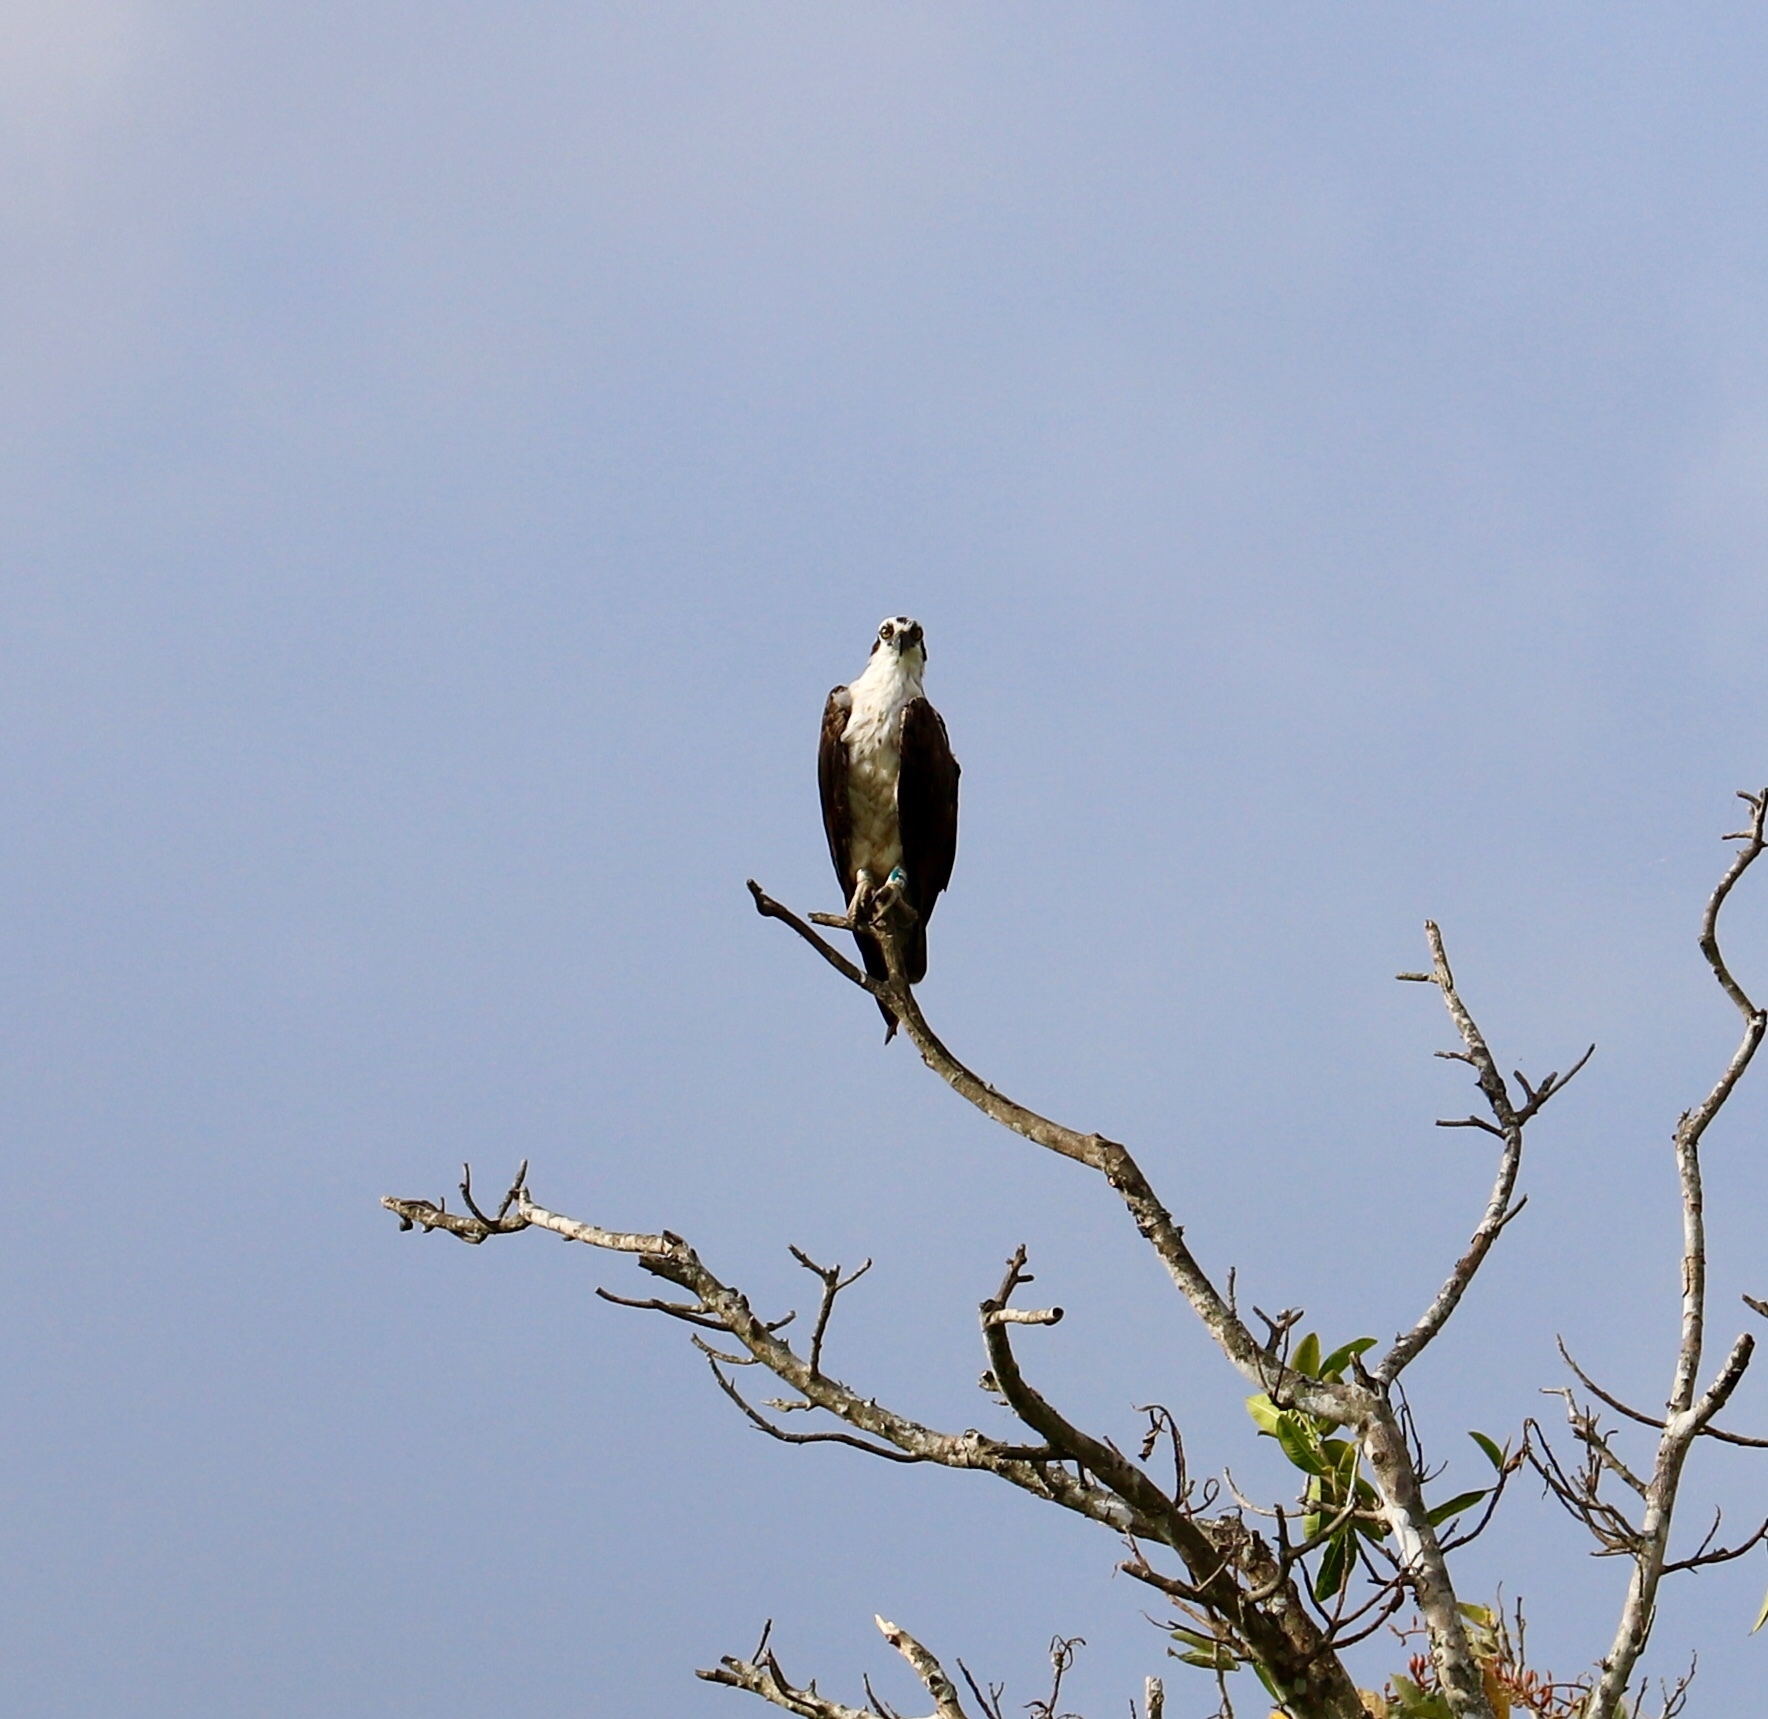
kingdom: Animalia
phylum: Chordata
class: Aves
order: Accipitriformes
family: Pandionidae
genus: Pandion
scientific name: Pandion haliaetus
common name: Osprey
